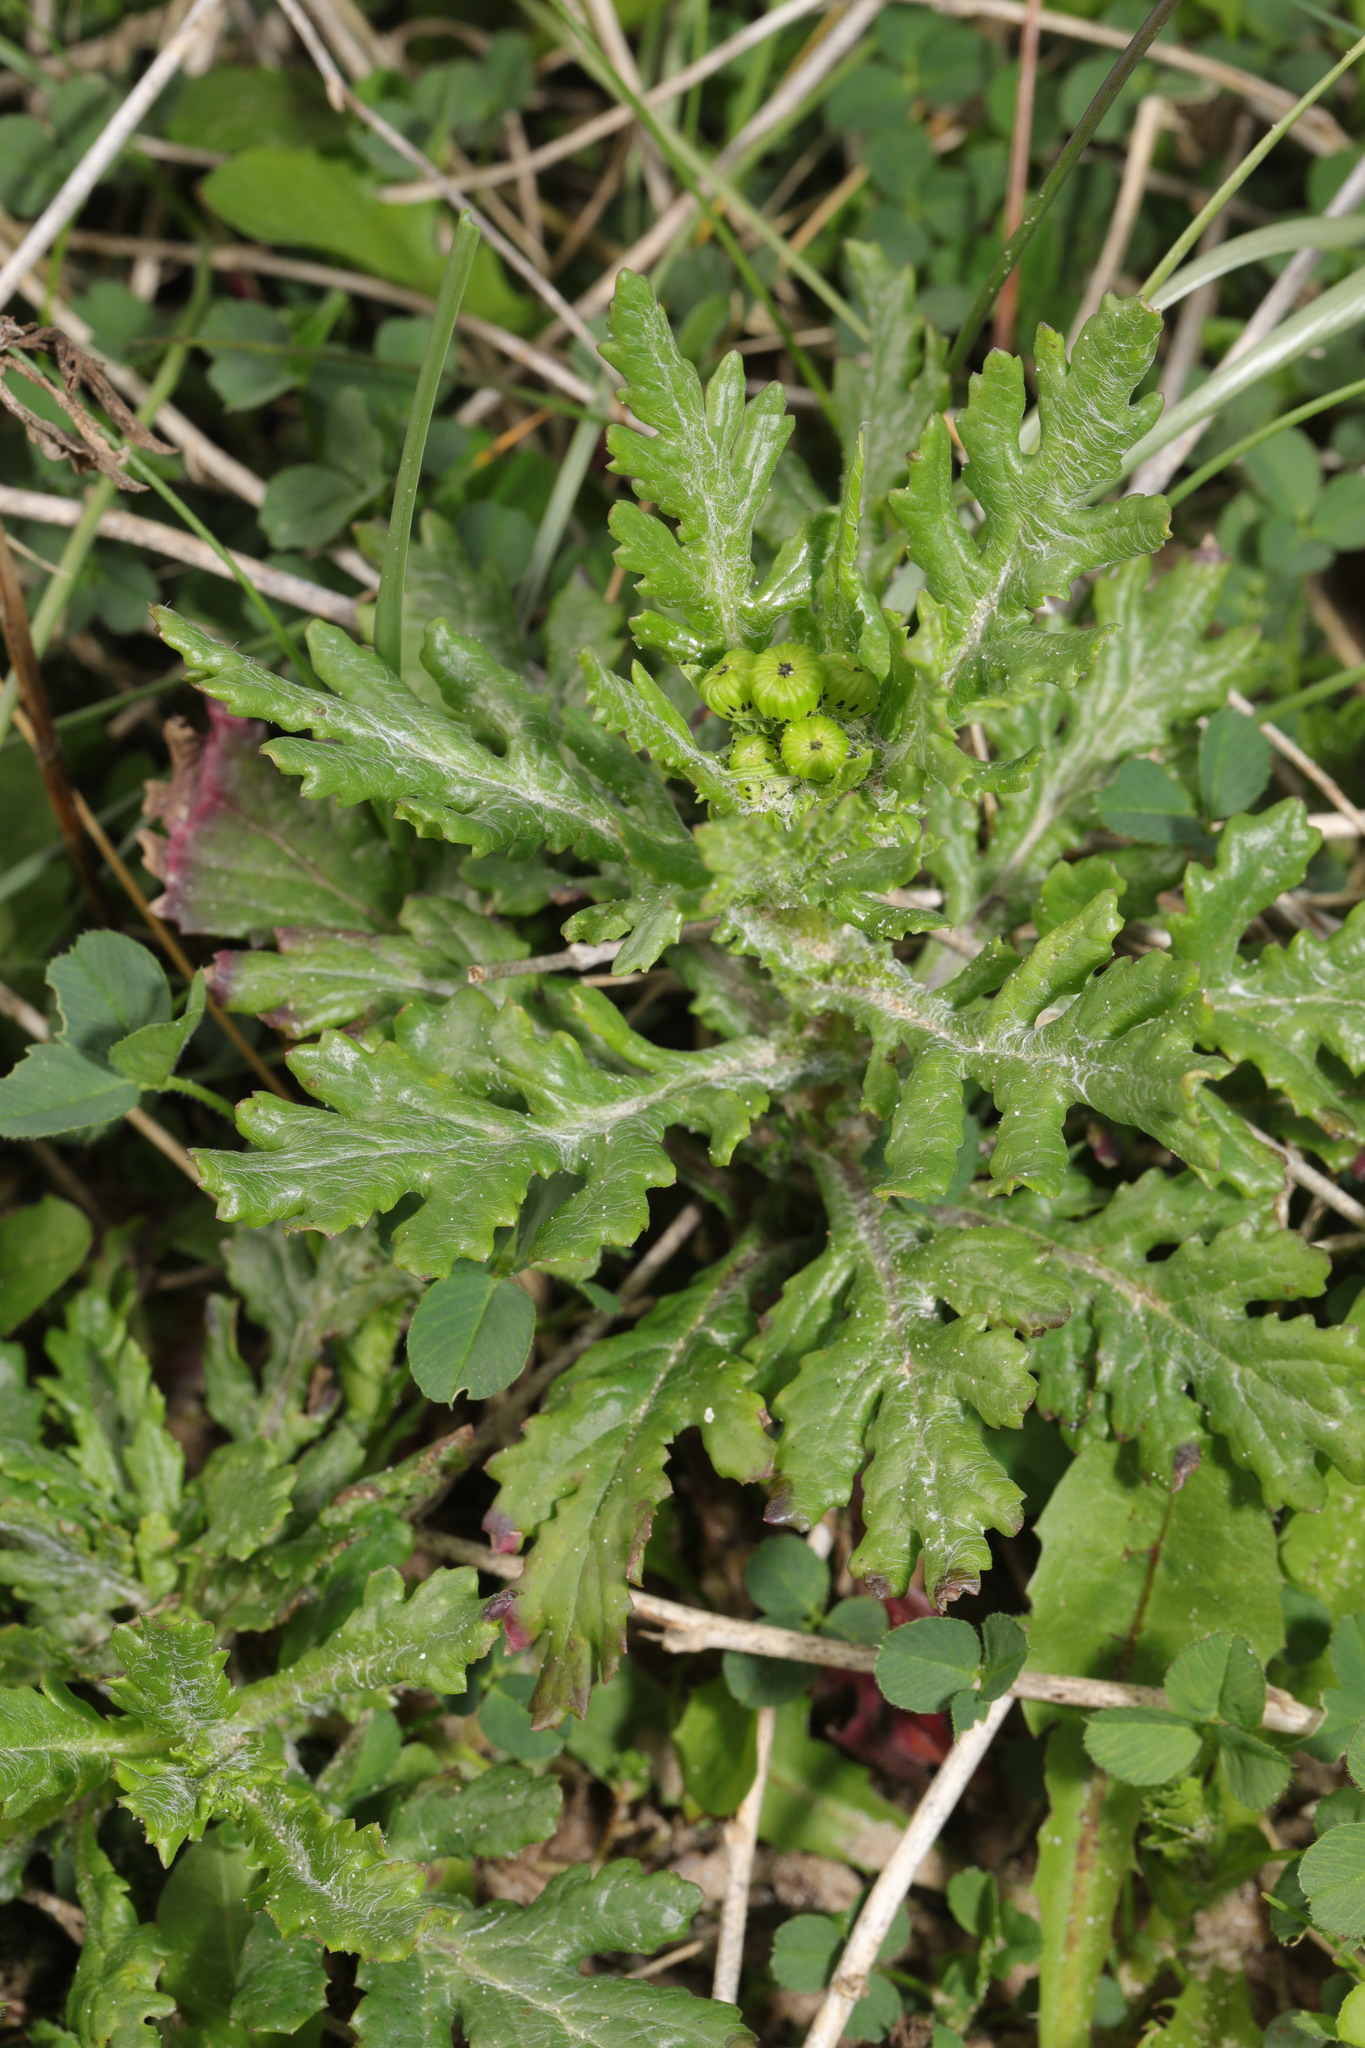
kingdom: Plantae
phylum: Tracheophyta
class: Magnoliopsida
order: Asterales
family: Asteraceae
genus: Senecio
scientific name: Senecio vulgaris
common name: Old-man-in-the-spring
